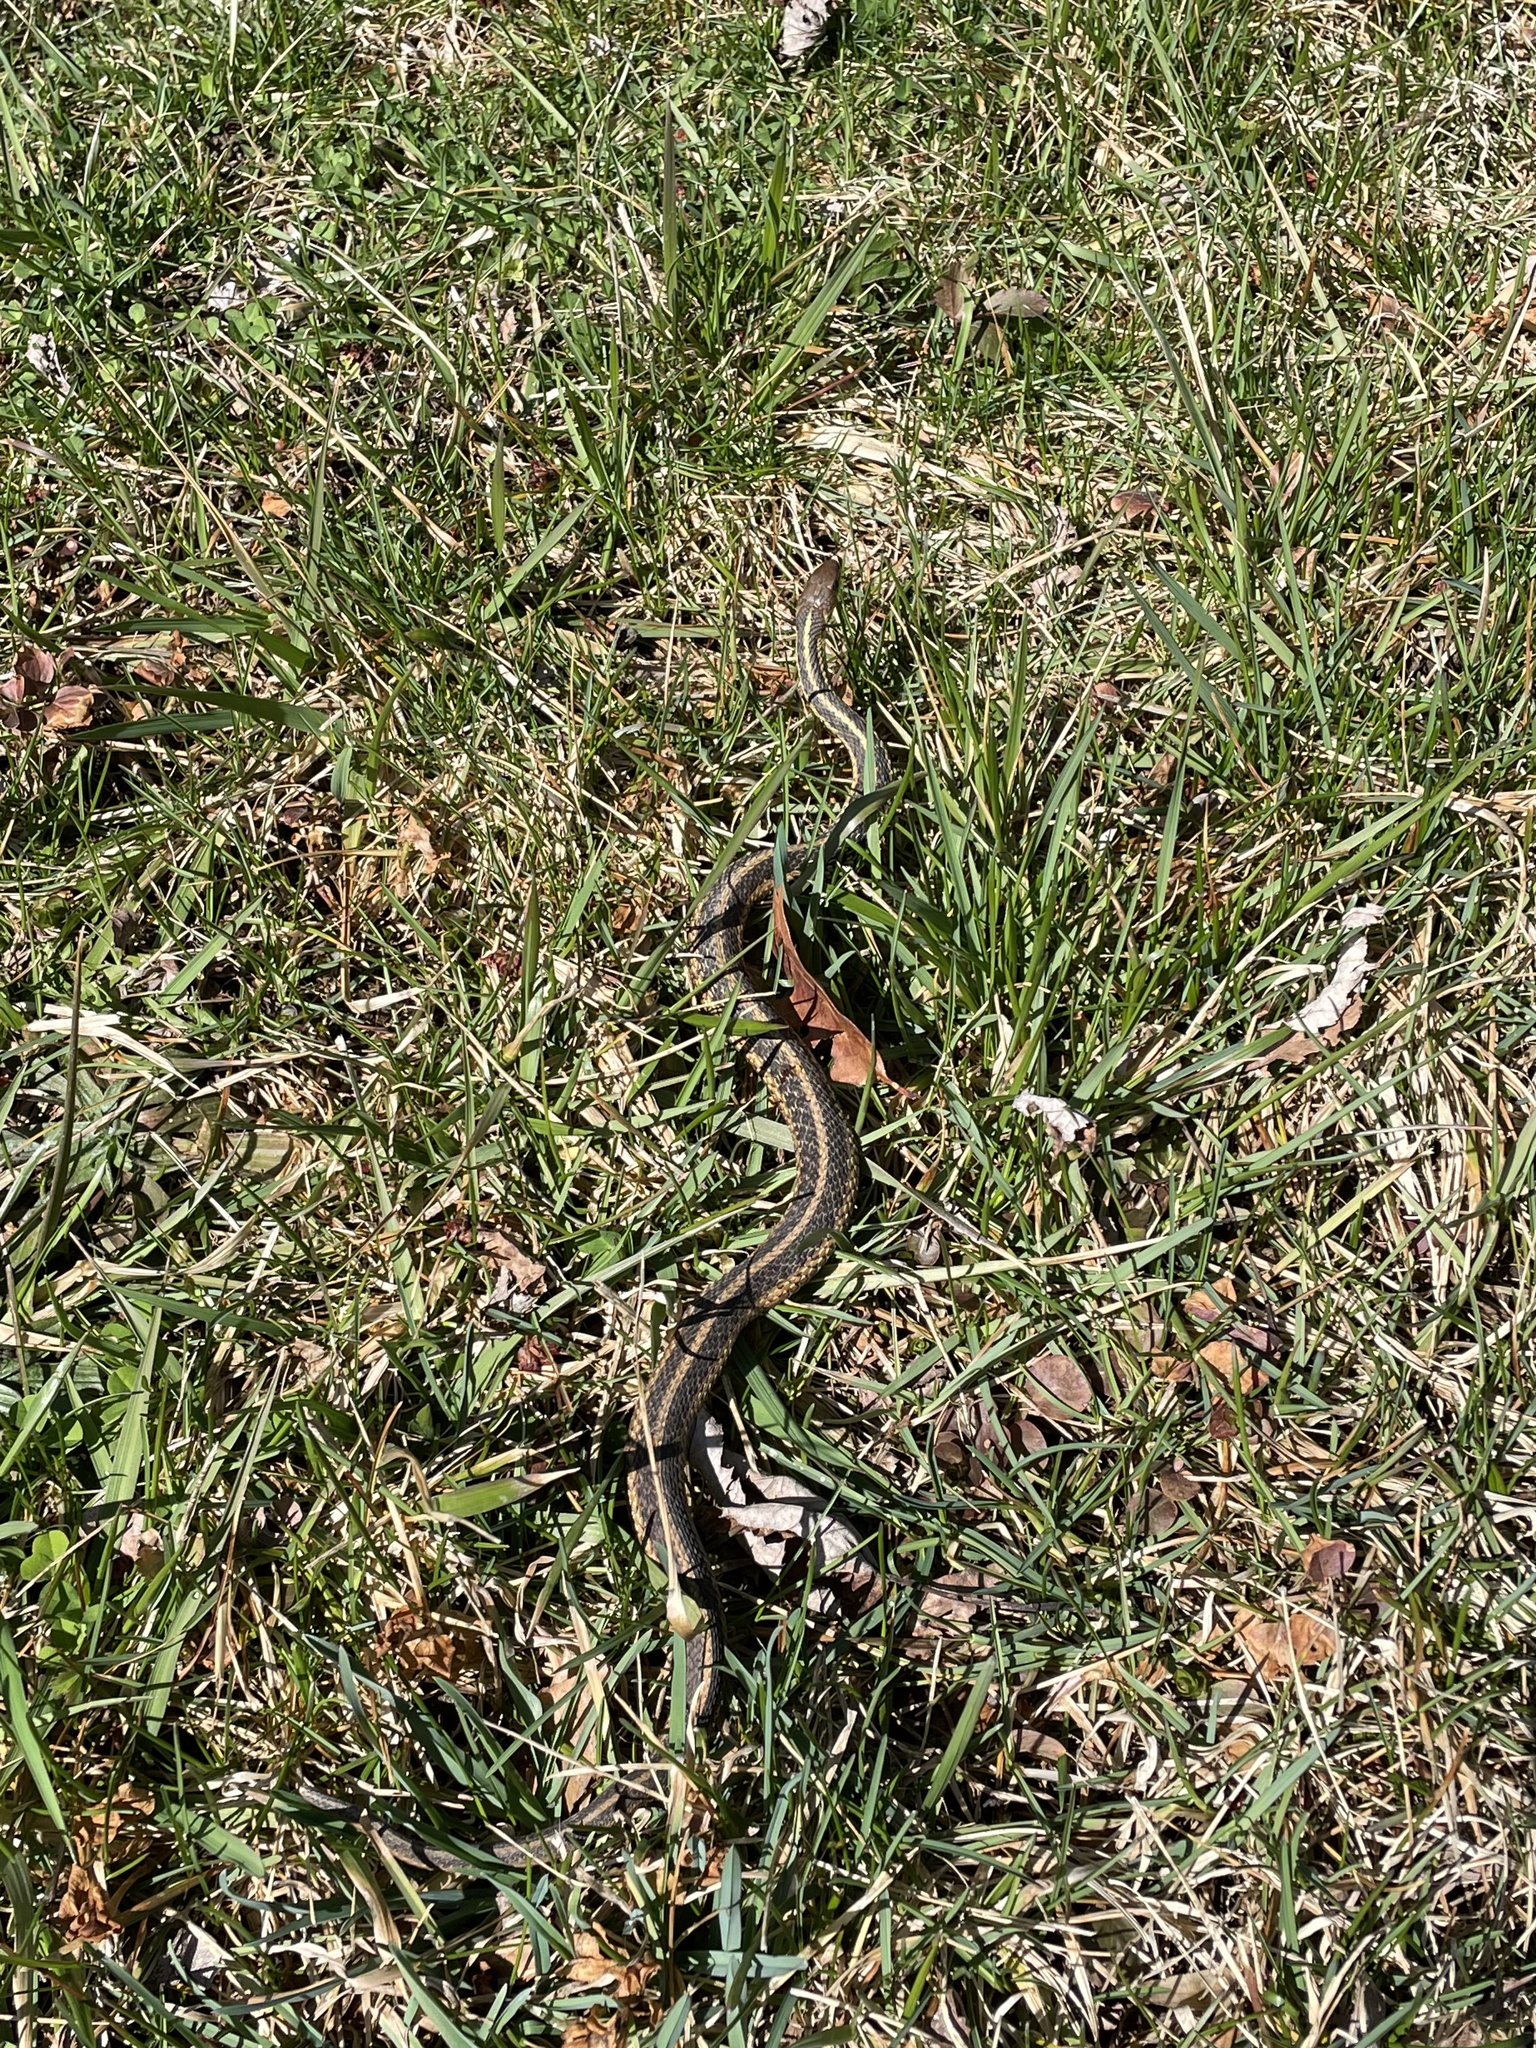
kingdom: Animalia
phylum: Chordata
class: Squamata
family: Colubridae
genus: Thamnophis
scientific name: Thamnophis sirtalis
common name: Common garter snake
